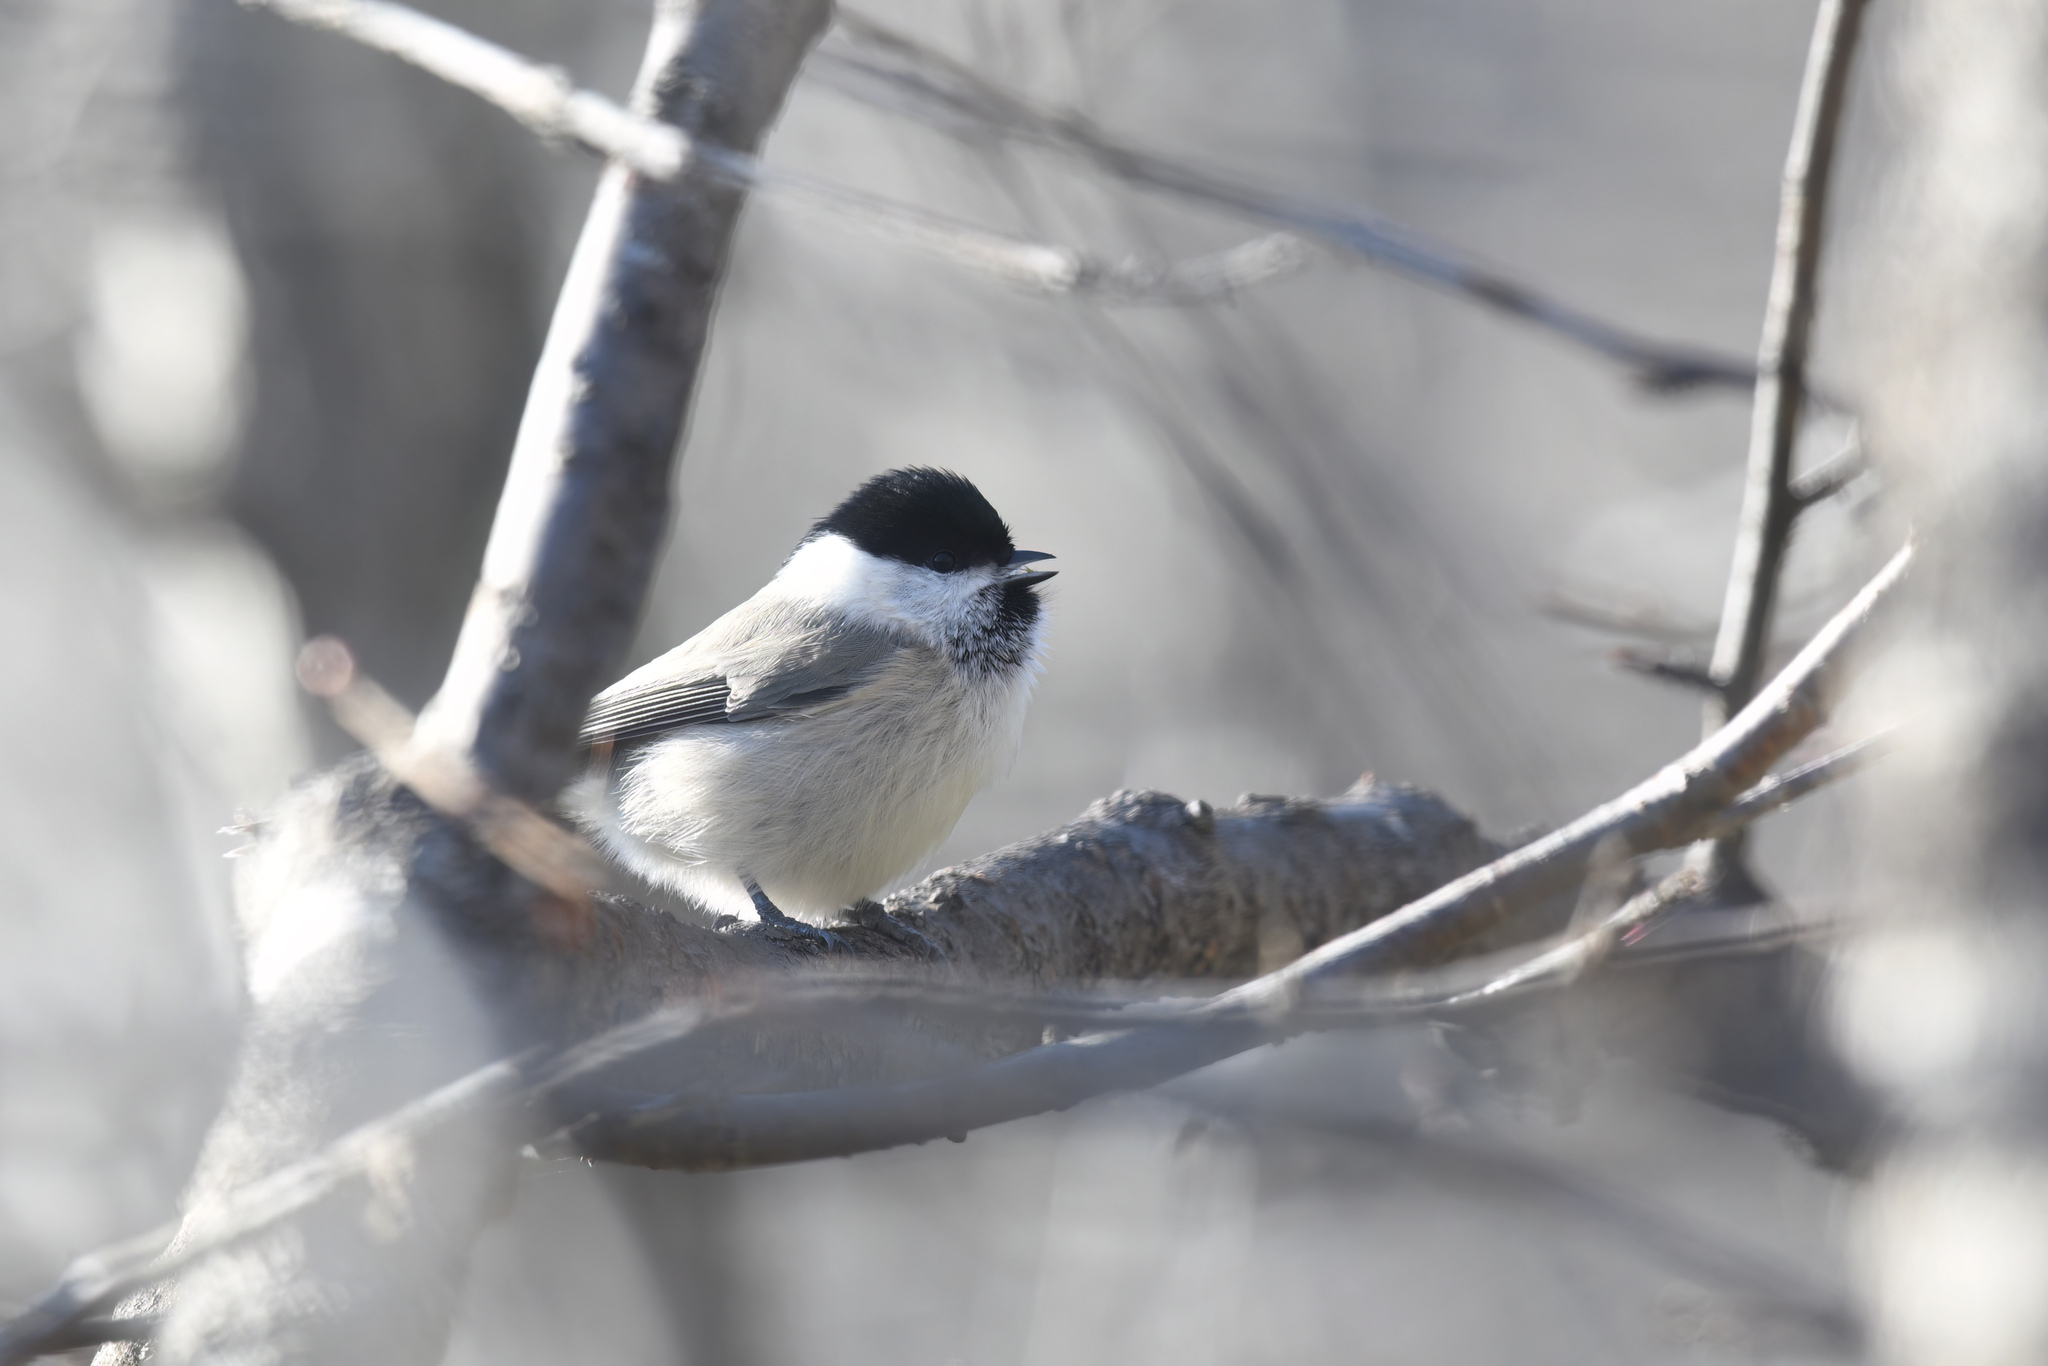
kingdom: Animalia
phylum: Chordata
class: Aves
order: Passeriformes
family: Paridae
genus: Poecile
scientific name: Poecile palustris
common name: Marsh tit
